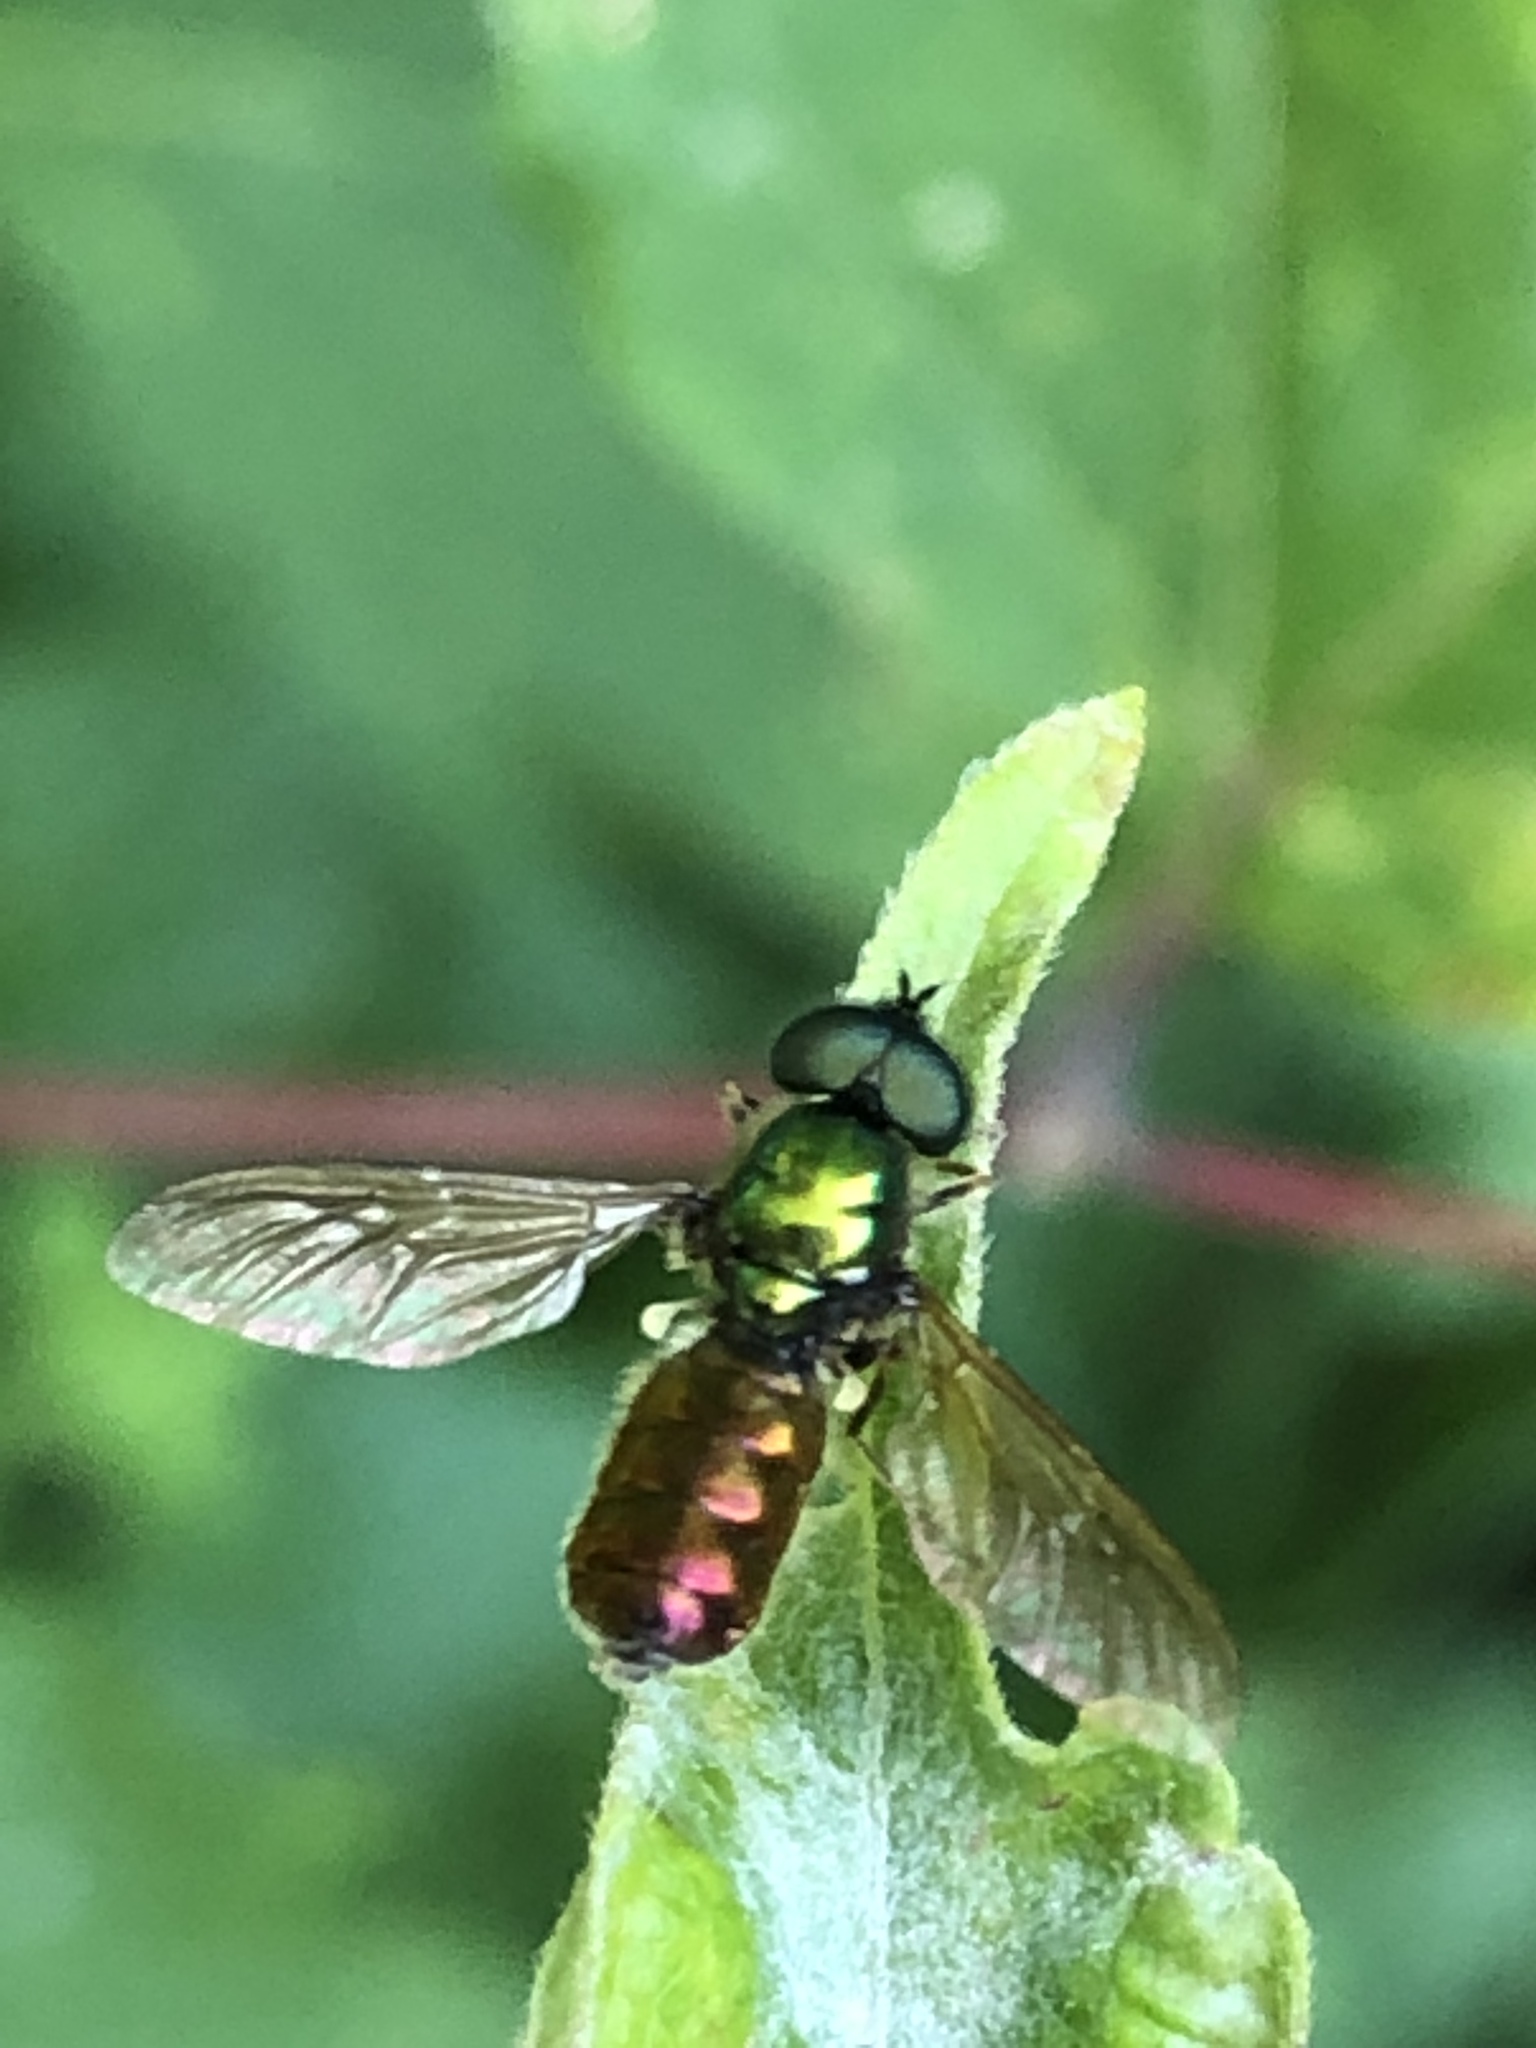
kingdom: Animalia
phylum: Arthropoda
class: Insecta
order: Diptera
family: Stratiomyidae
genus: Chloromyia
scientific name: Chloromyia formosa
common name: Soldier fly
